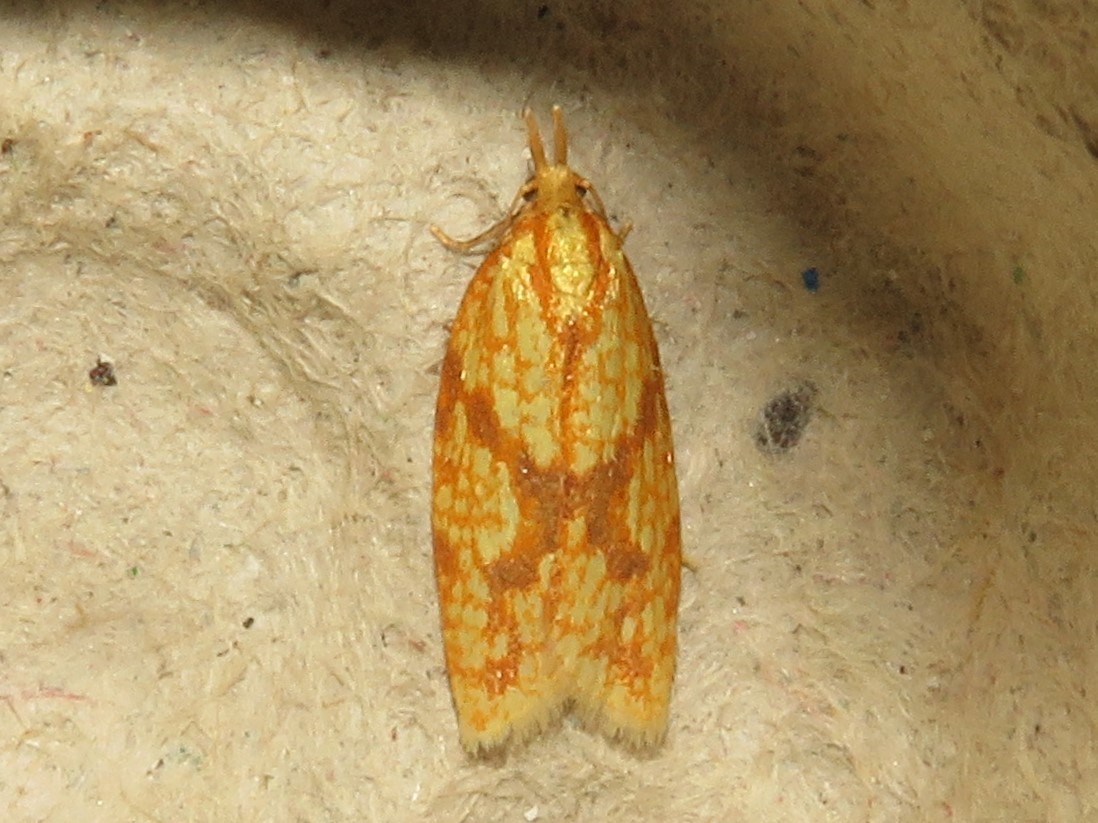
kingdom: Animalia
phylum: Arthropoda
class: Insecta
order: Lepidoptera
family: Tortricidae
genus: Sparganothis
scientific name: Sparganothis sulfureana
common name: Sparganothis fruitworm moth
